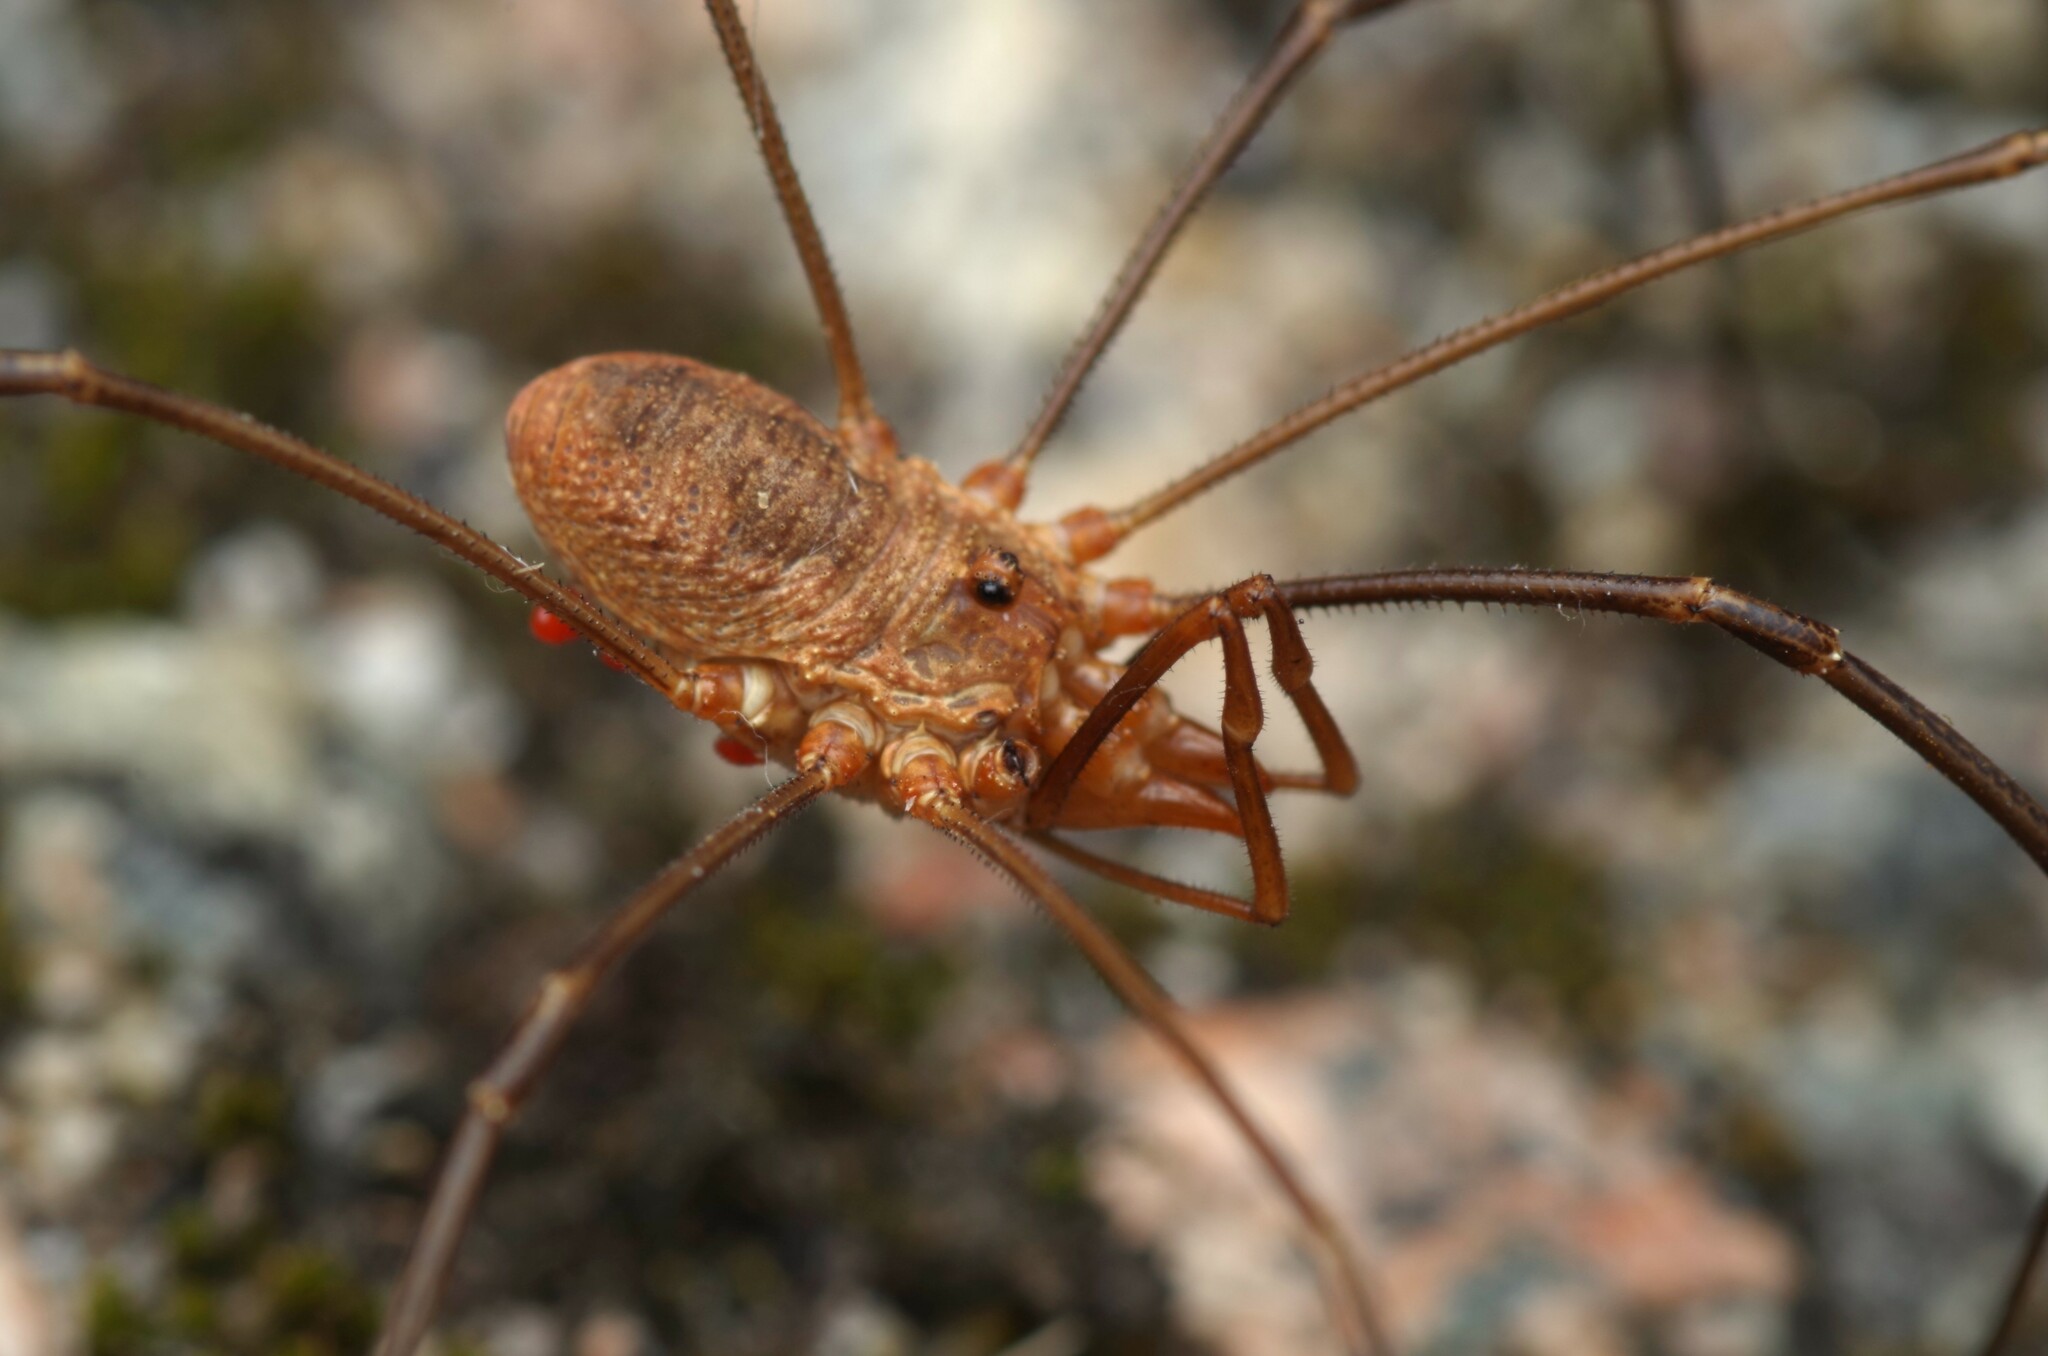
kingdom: Animalia
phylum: Arthropoda
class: Arachnida
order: Opiliones
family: Phalangiidae
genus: Phalangium
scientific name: Phalangium opilio
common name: Daddy longleg
